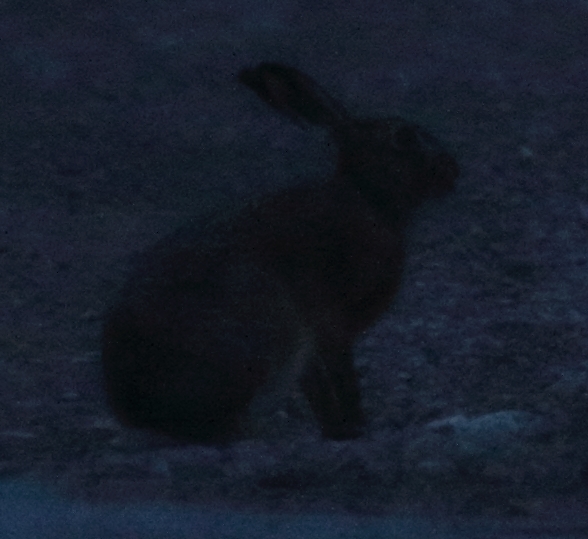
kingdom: Animalia
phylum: Chordata
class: Mammalia
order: Lagomorpha
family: Leporidae
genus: Lepus
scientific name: Lepus europaeus
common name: European hare
